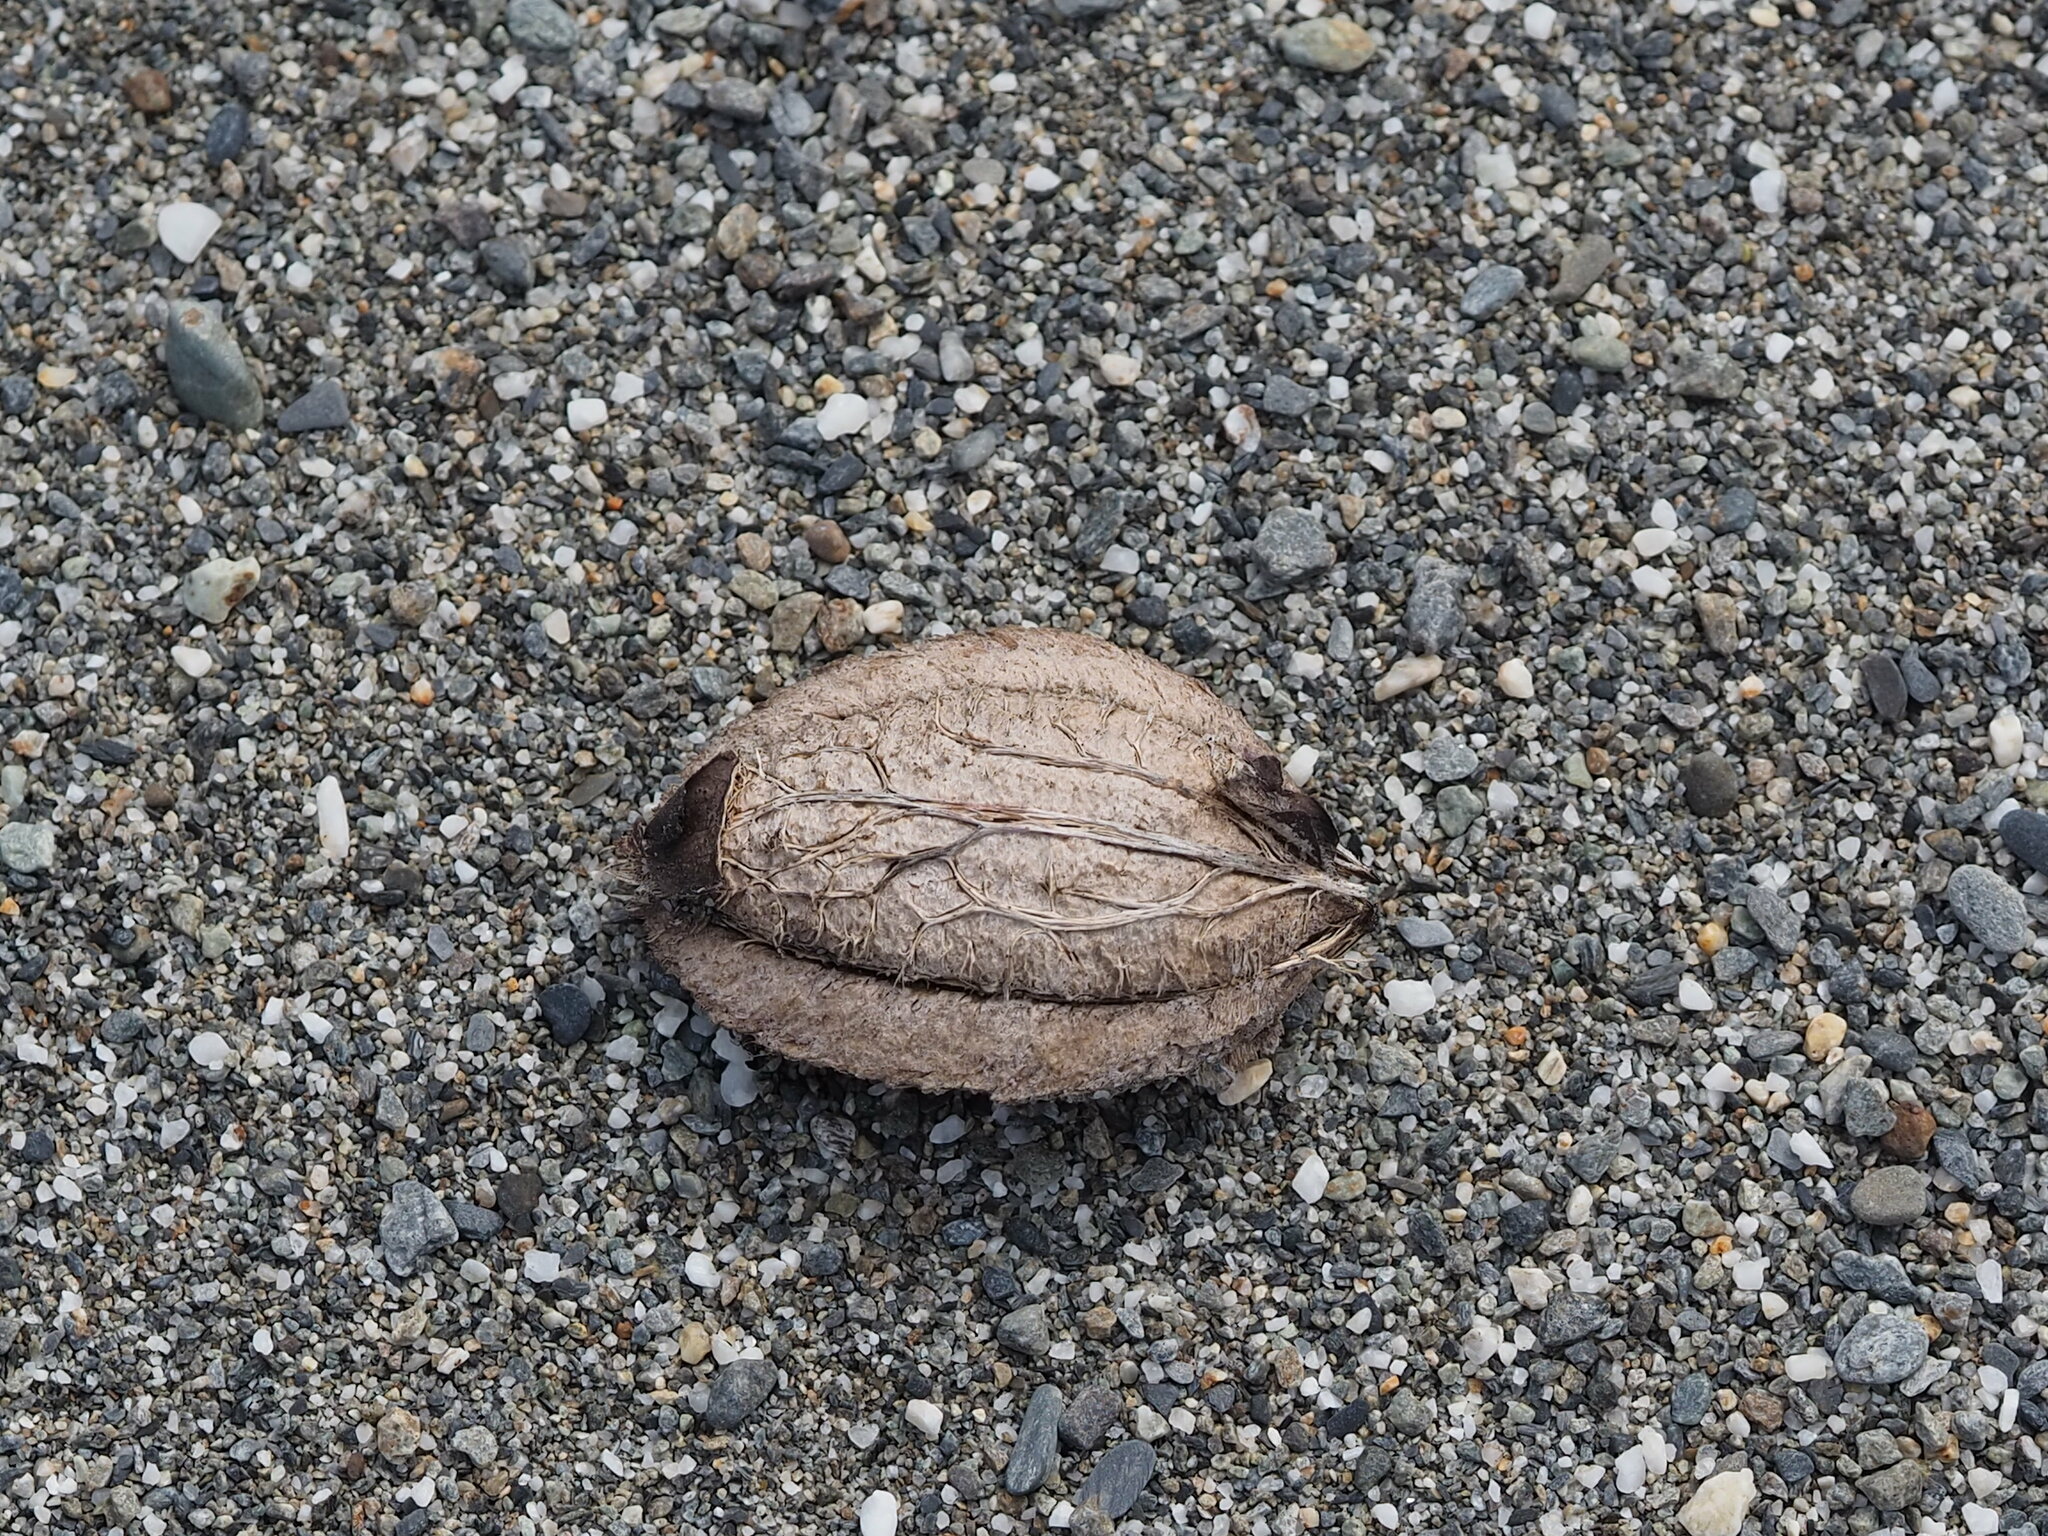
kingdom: Plantae
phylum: Tracheophyta
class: Magnoliopsida
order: Myrtales
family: Combretaceae
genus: Terminalia
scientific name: Terminalia catappa
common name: Tropical almond
